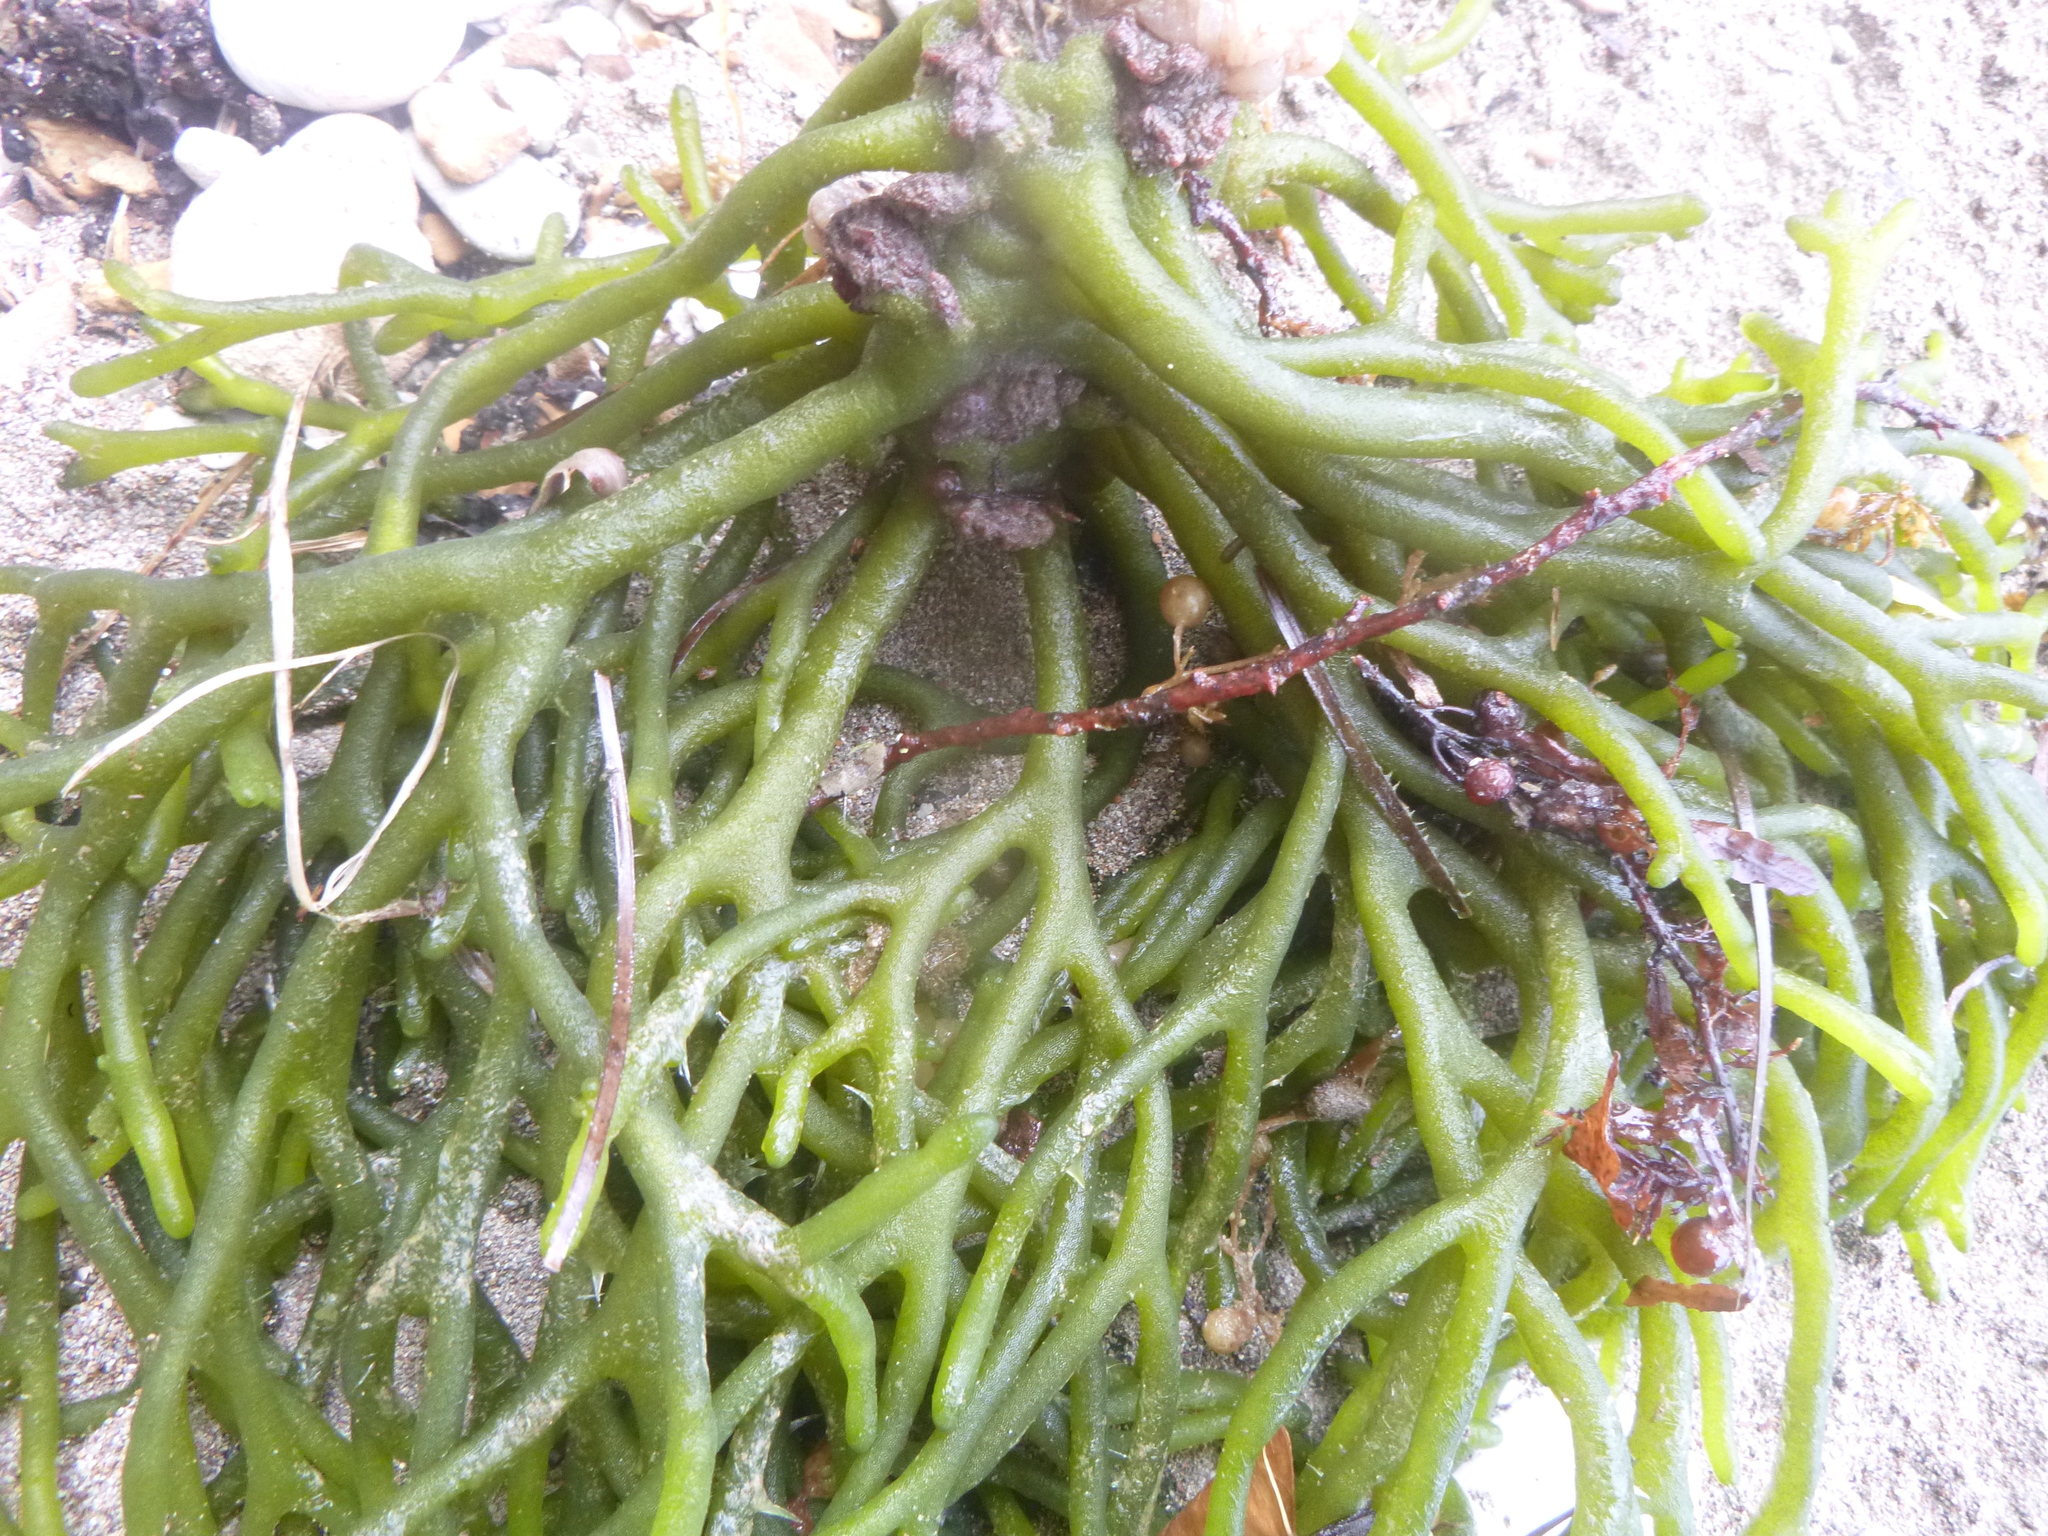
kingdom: Plantae
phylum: Chlorophyta
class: Ulvophyceae
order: Bryopsidales
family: Codiaceae
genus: Codium
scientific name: Codium fragile
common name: Dead man's fingers
